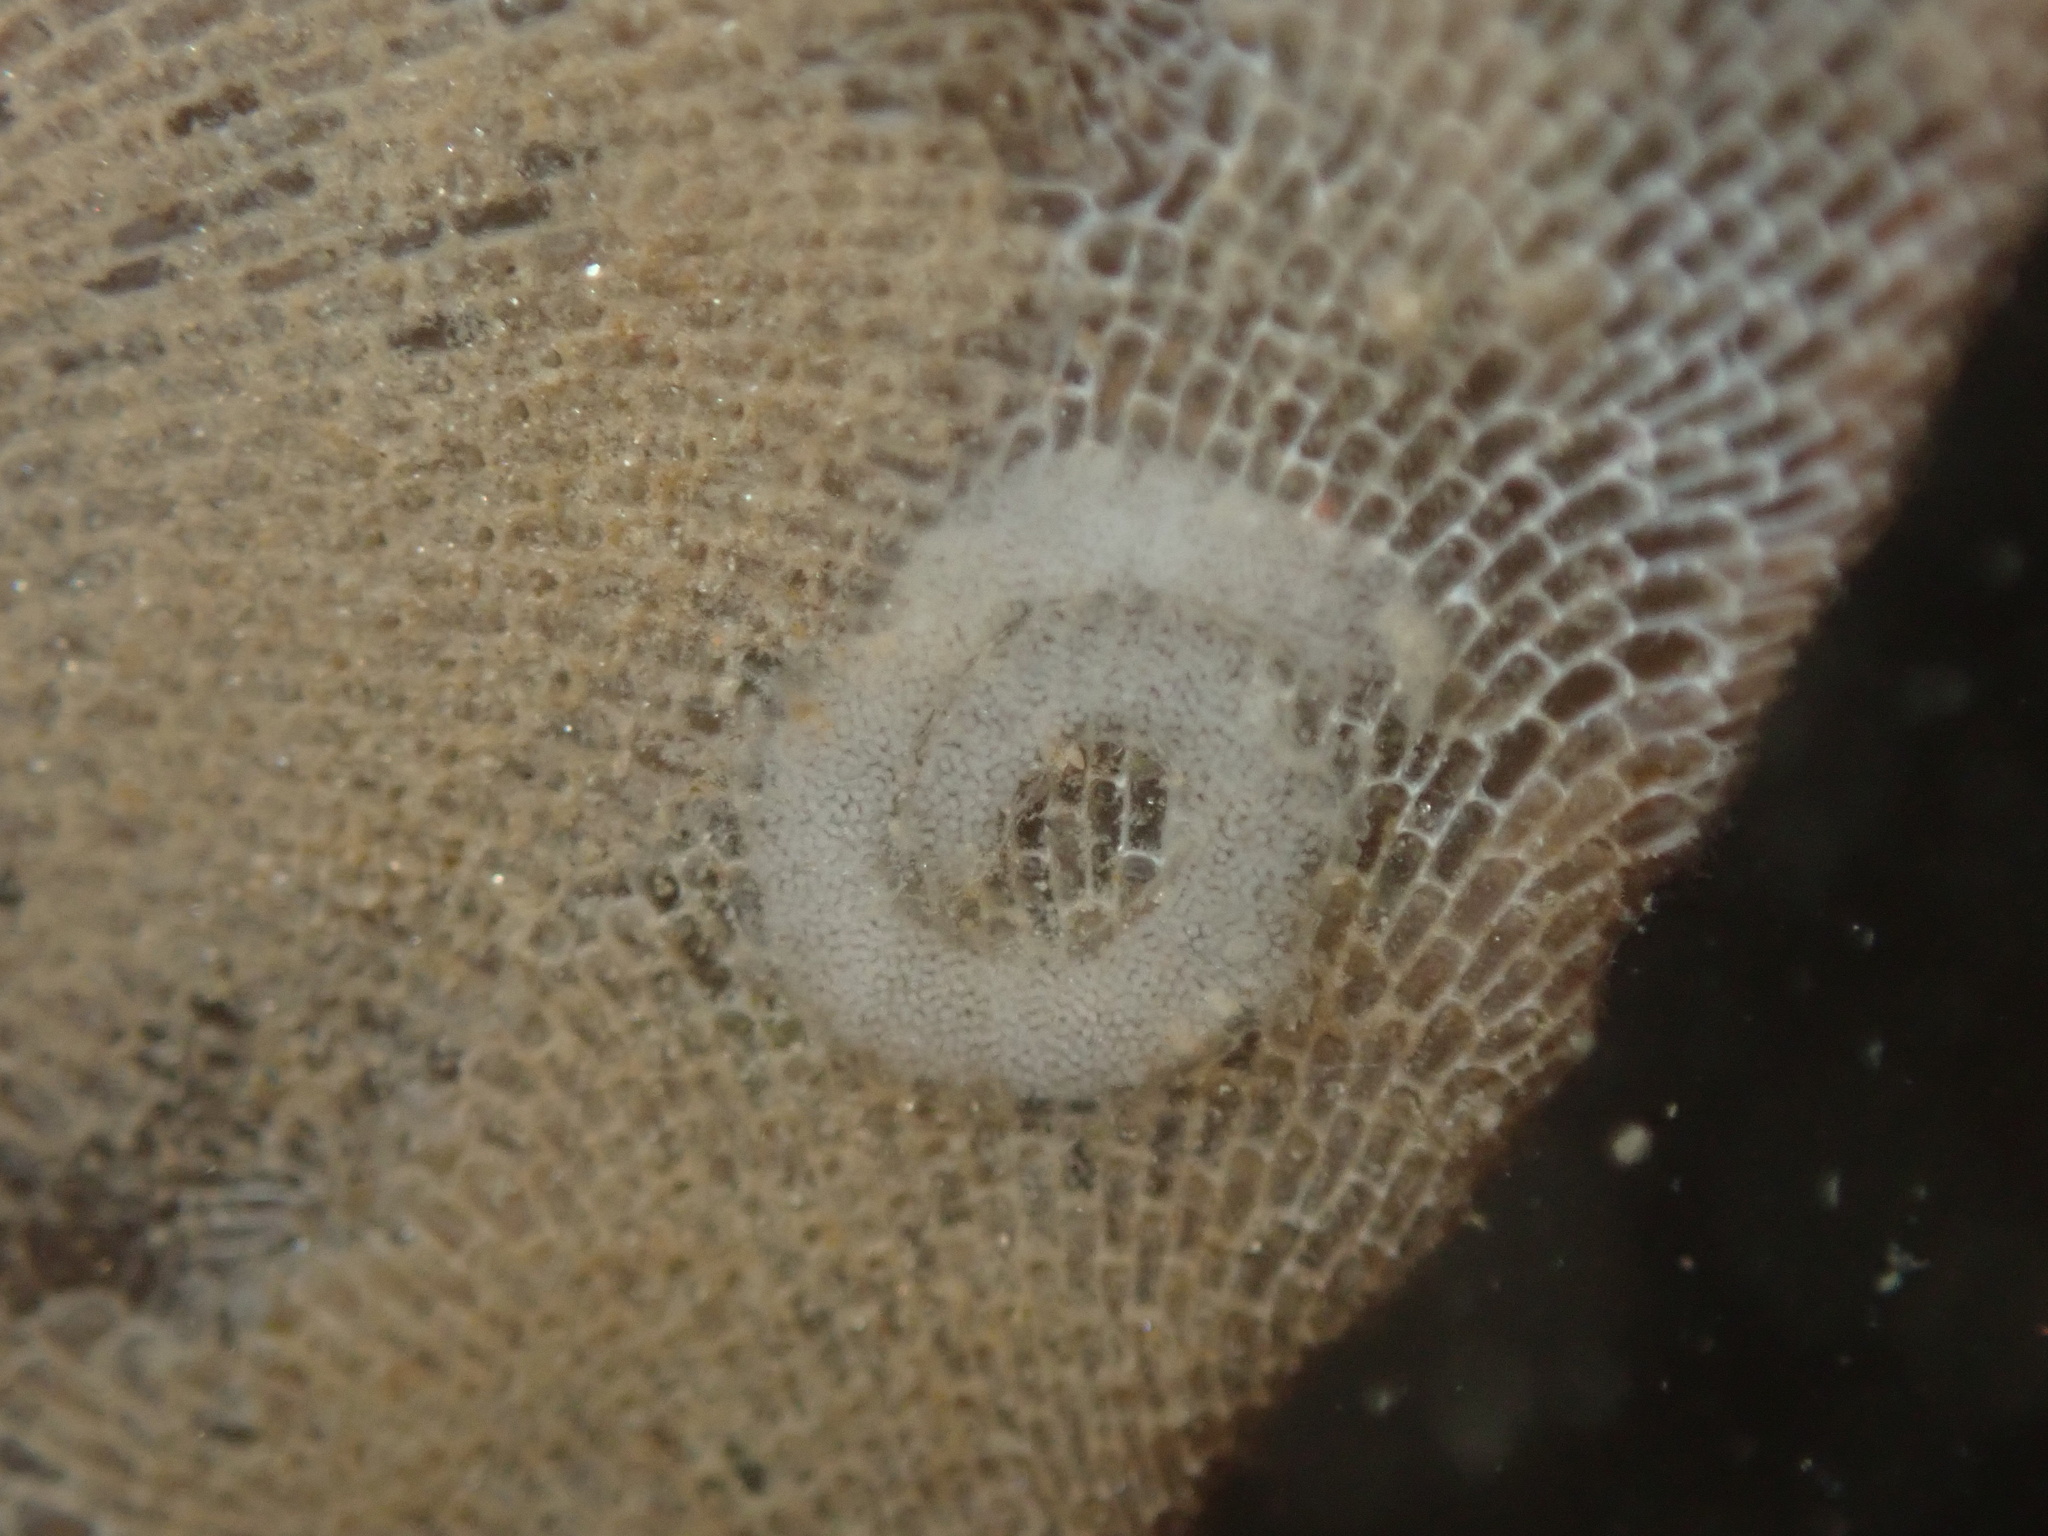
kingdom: Animalia
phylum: Mollusca
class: Gastropoda
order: Nudibranchia
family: Corambidae
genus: Corambe
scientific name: Corambe pacifica
